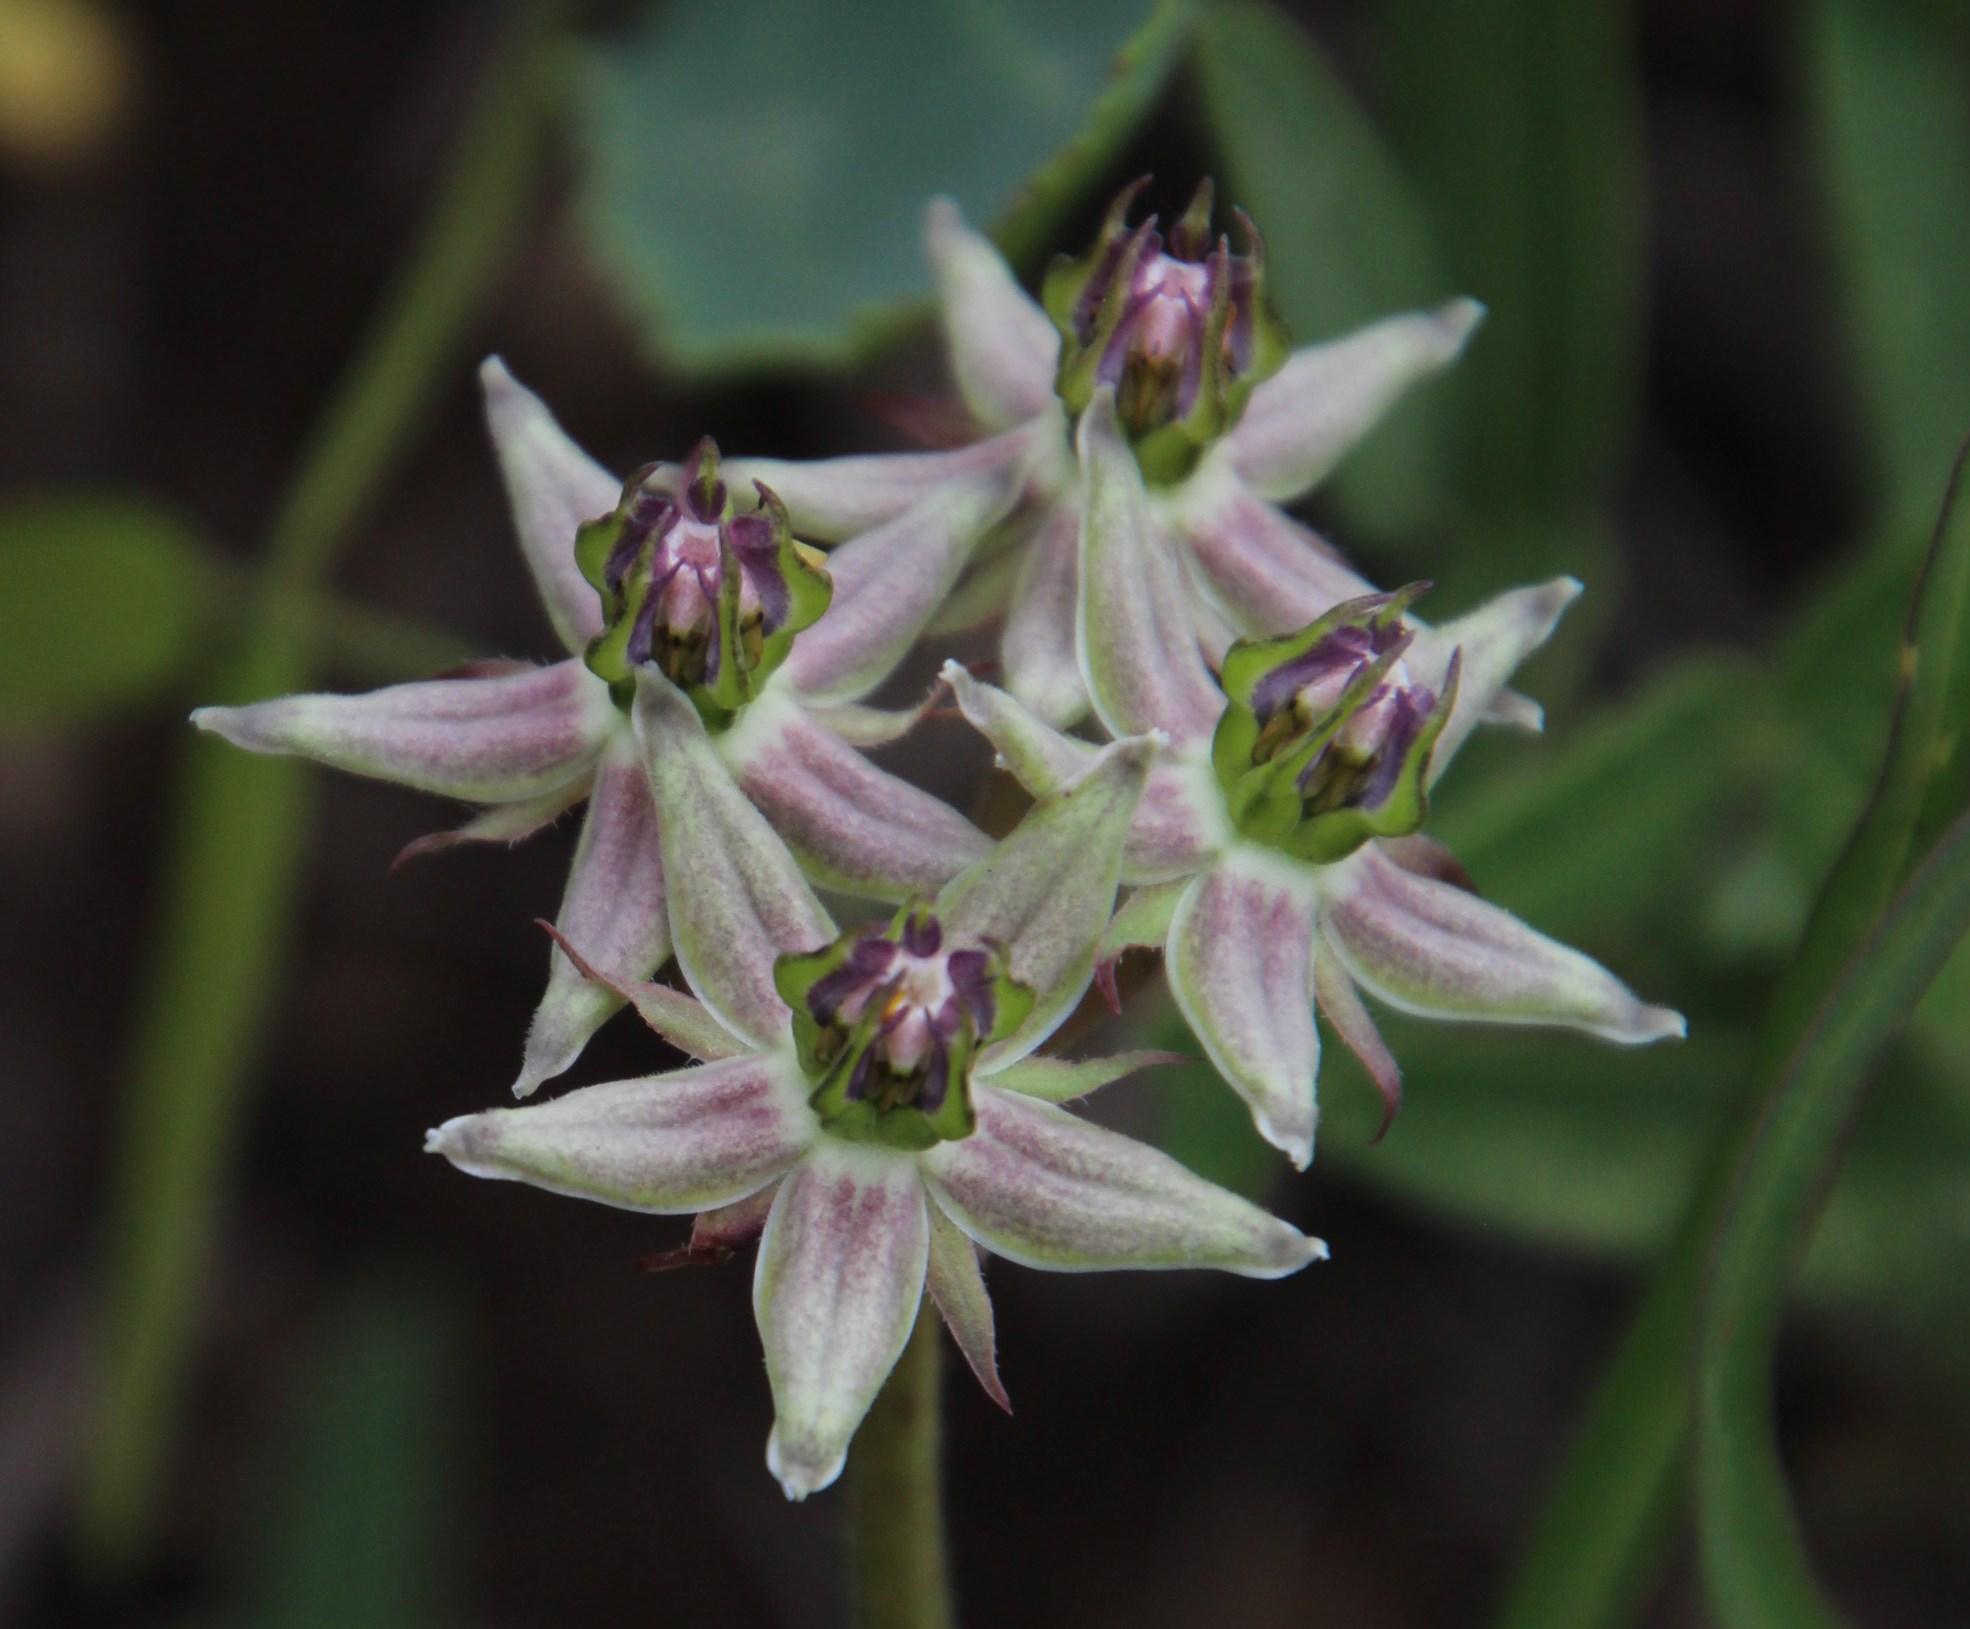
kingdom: Plantae
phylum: Tracheophyta
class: Magnoliopsida
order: Gentianales
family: Apocynaceae
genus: Asclepias
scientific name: Asclepias gibba
